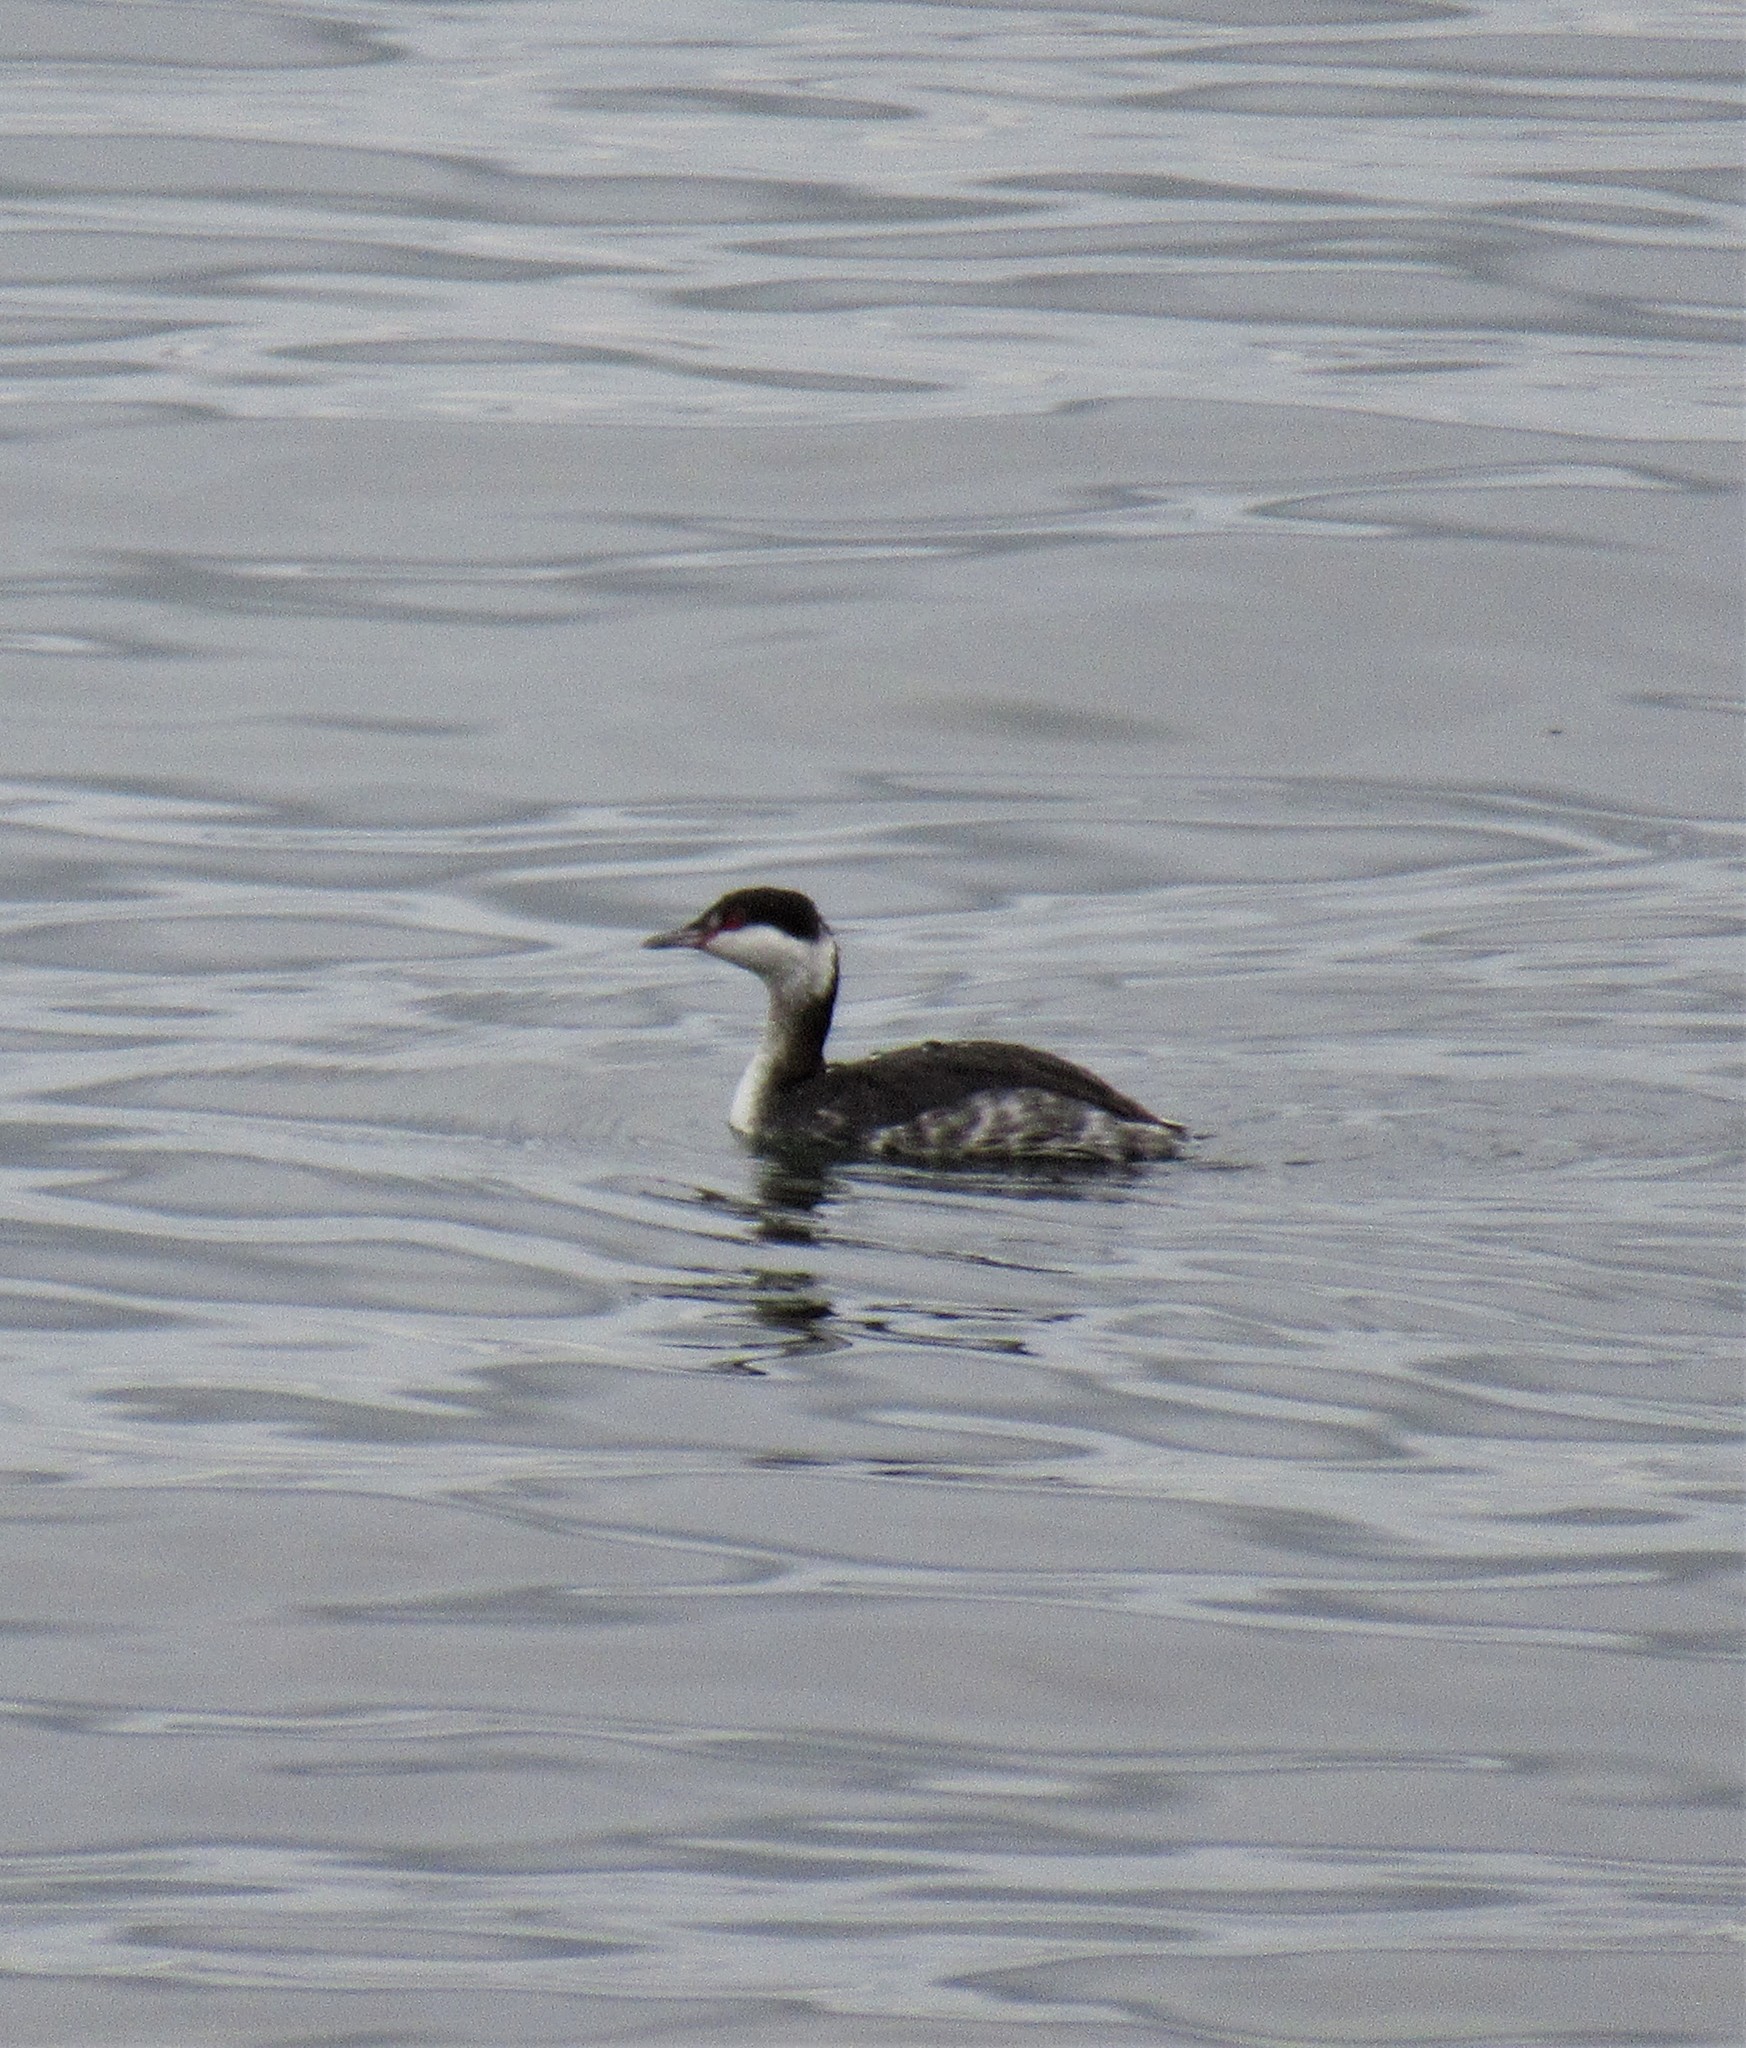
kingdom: Animalia
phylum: Chordata
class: Aves
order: Podicipediformes
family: Podicipedidae
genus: Podiceps
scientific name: Podiceps auritus
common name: Horned grebe
